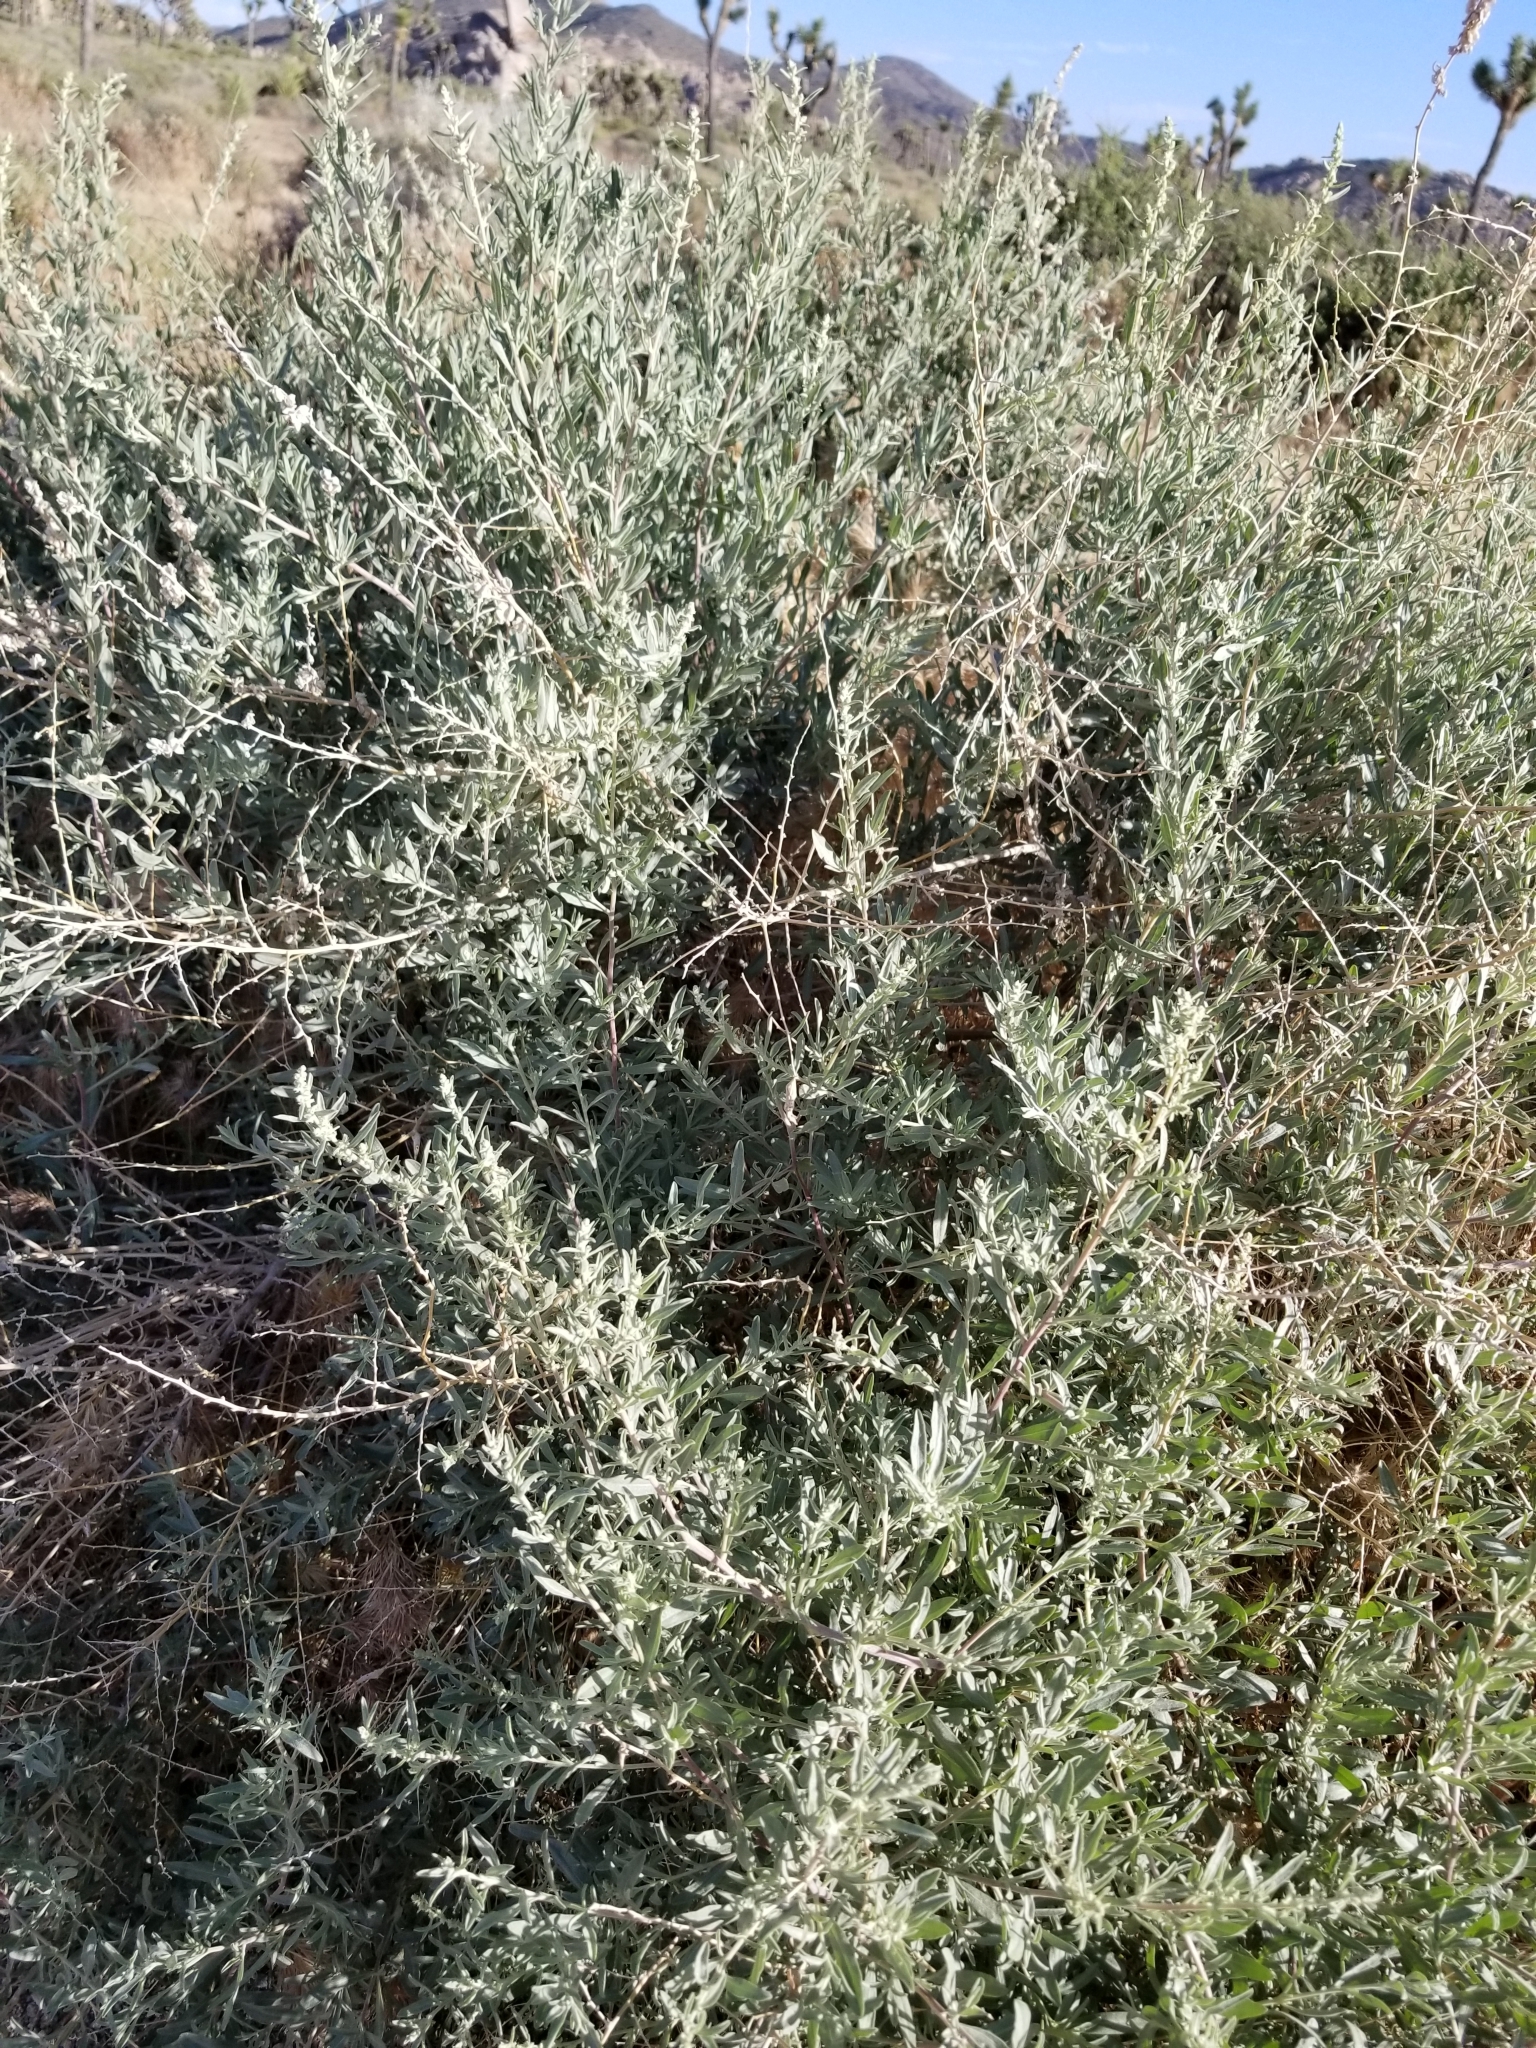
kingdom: Plantae
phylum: Tracheophyta
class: Magnoliopsida
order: Caryophyllales
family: Amaranthaceae
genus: Atriplex
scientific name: Atriplex canescens
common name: Four-wing saltbush
